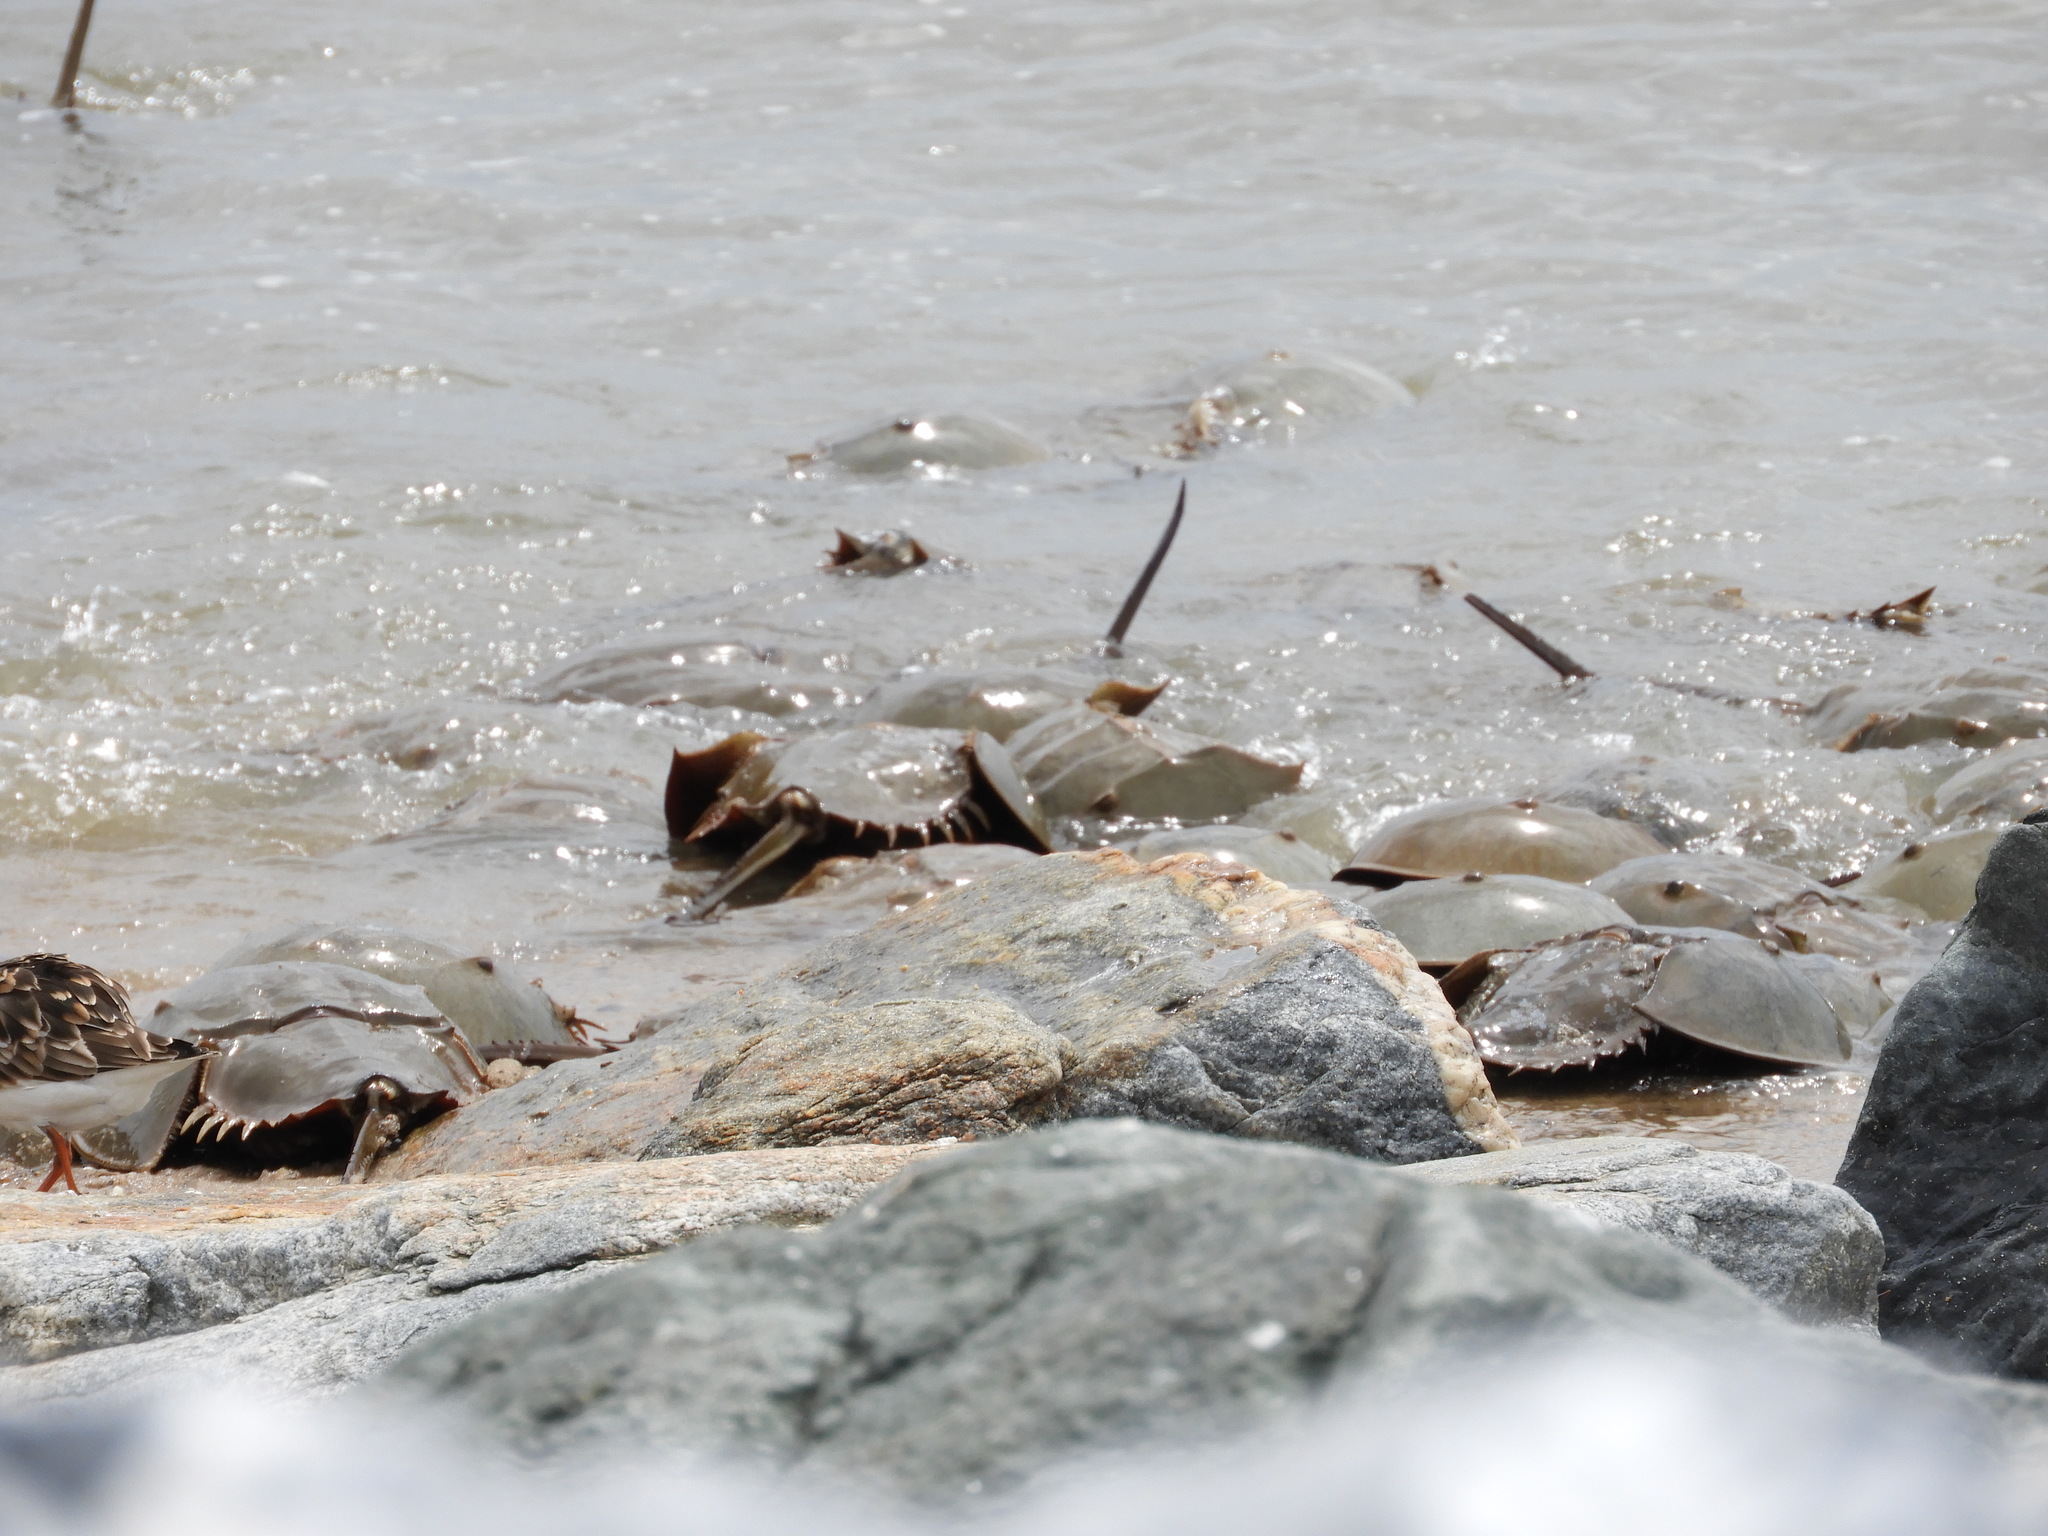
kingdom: Animalia
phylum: Arthropoda
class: Merostomata
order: Xiphosurida
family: Limulidae
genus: Limulus
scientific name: Limulus polyphemus
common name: Horseshoe crab
